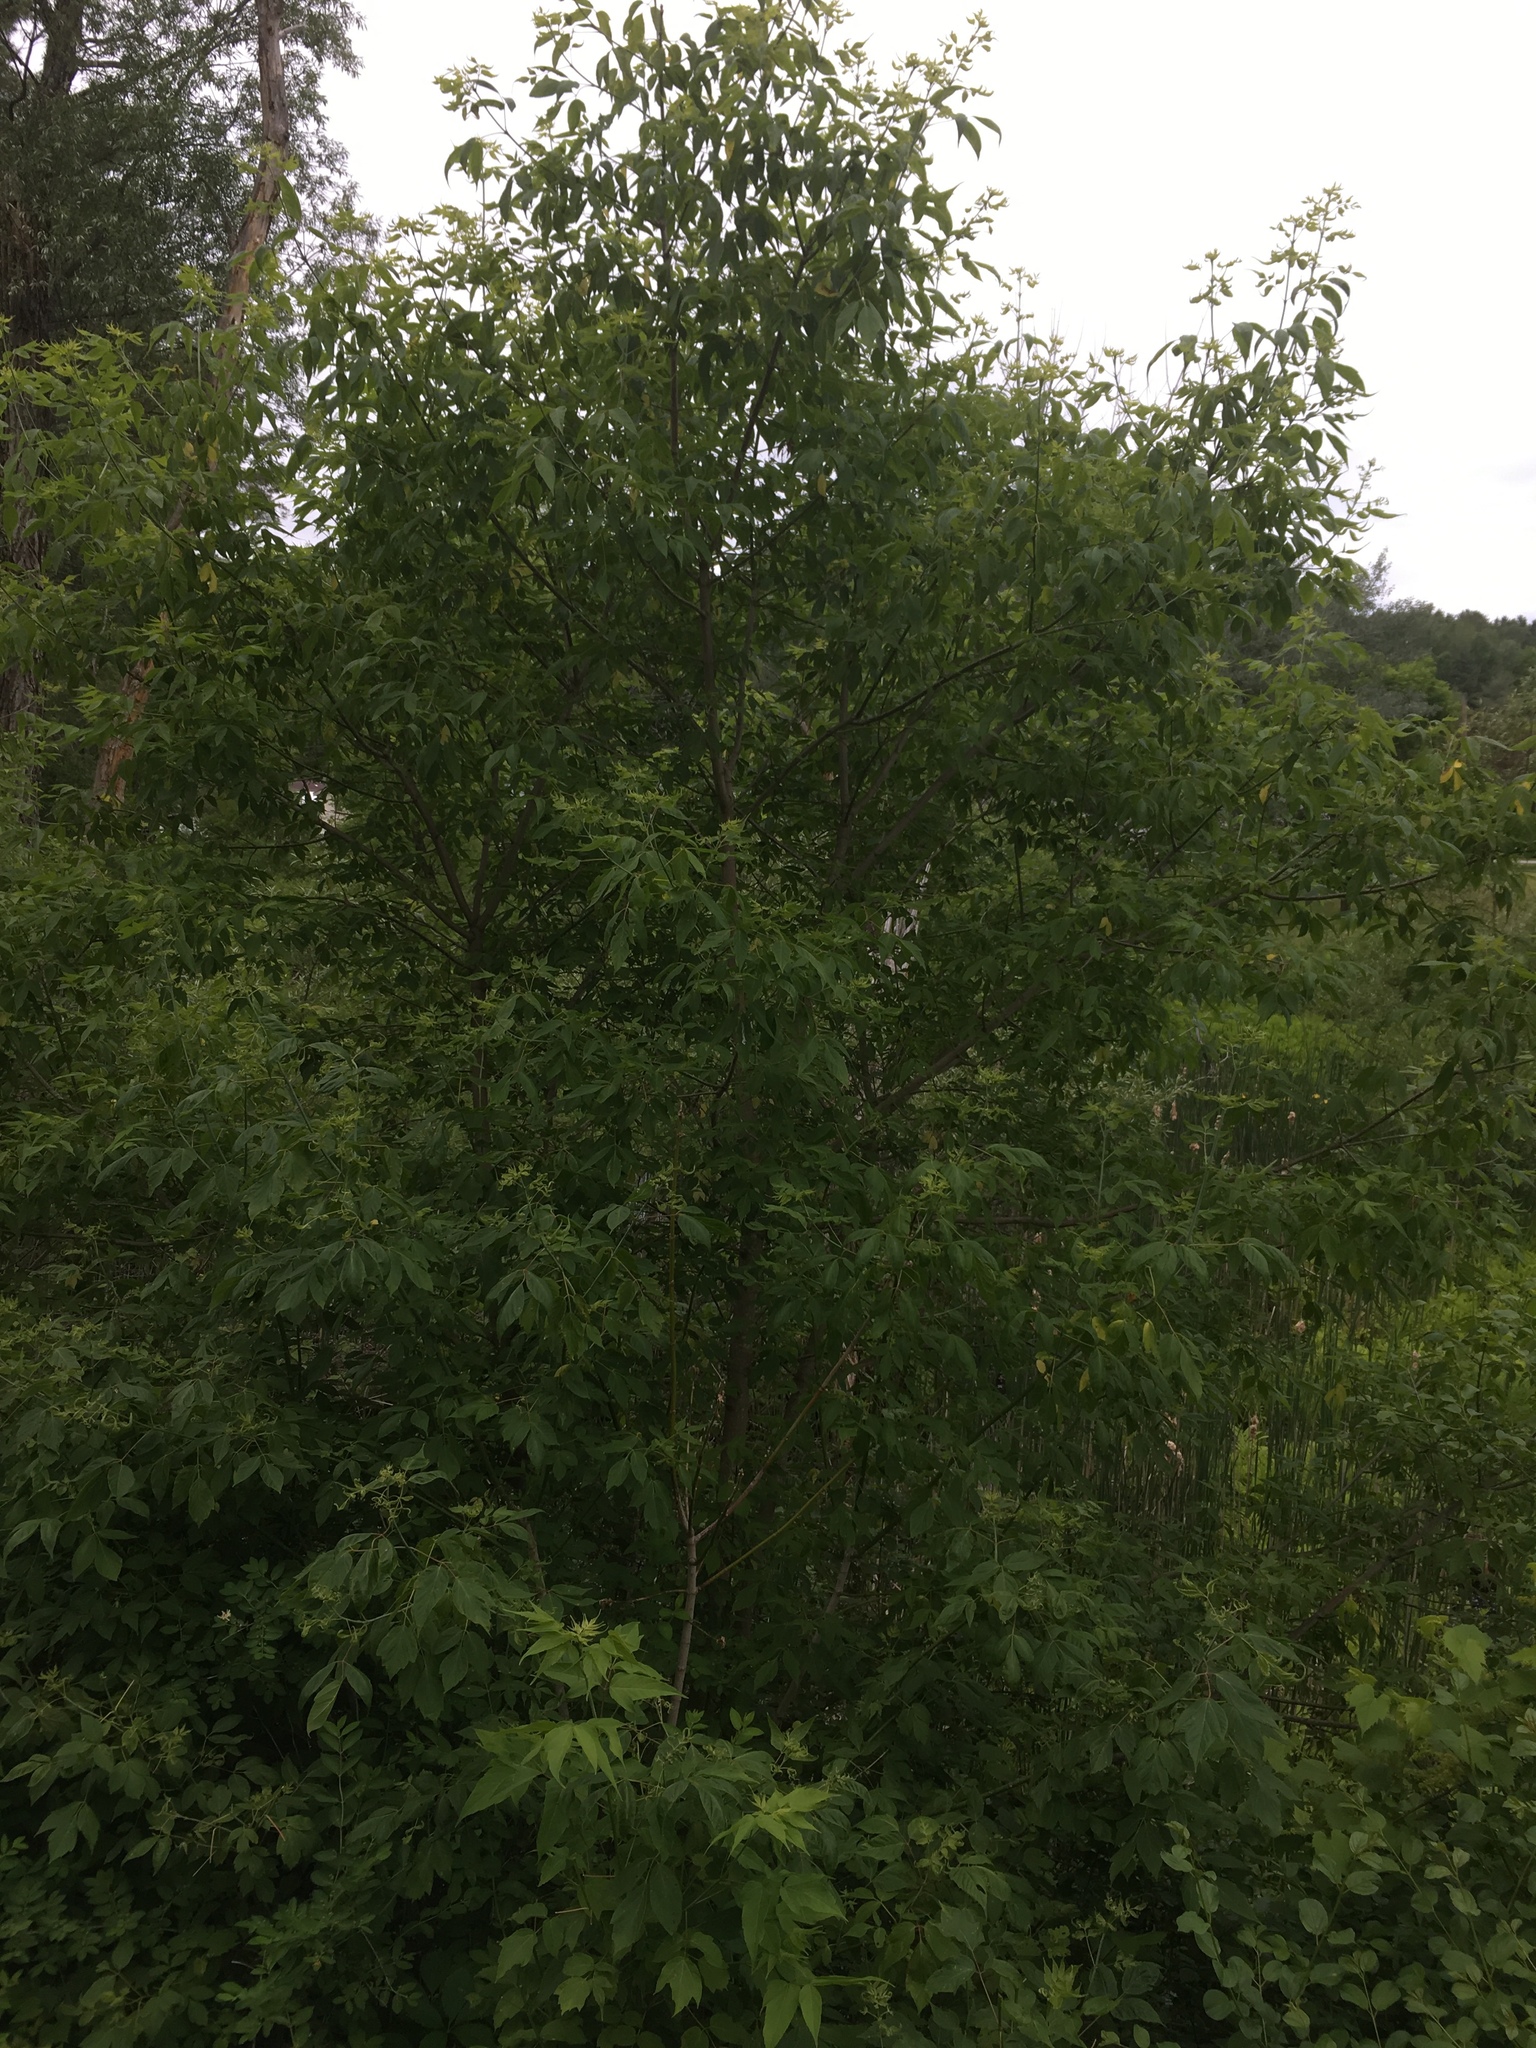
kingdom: Plantae
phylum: Tracheophyta
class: Magnoliopsida
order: Sapindales
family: Sapindaceae
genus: Acer
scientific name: Acer negundo
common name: Ashleaf maple
